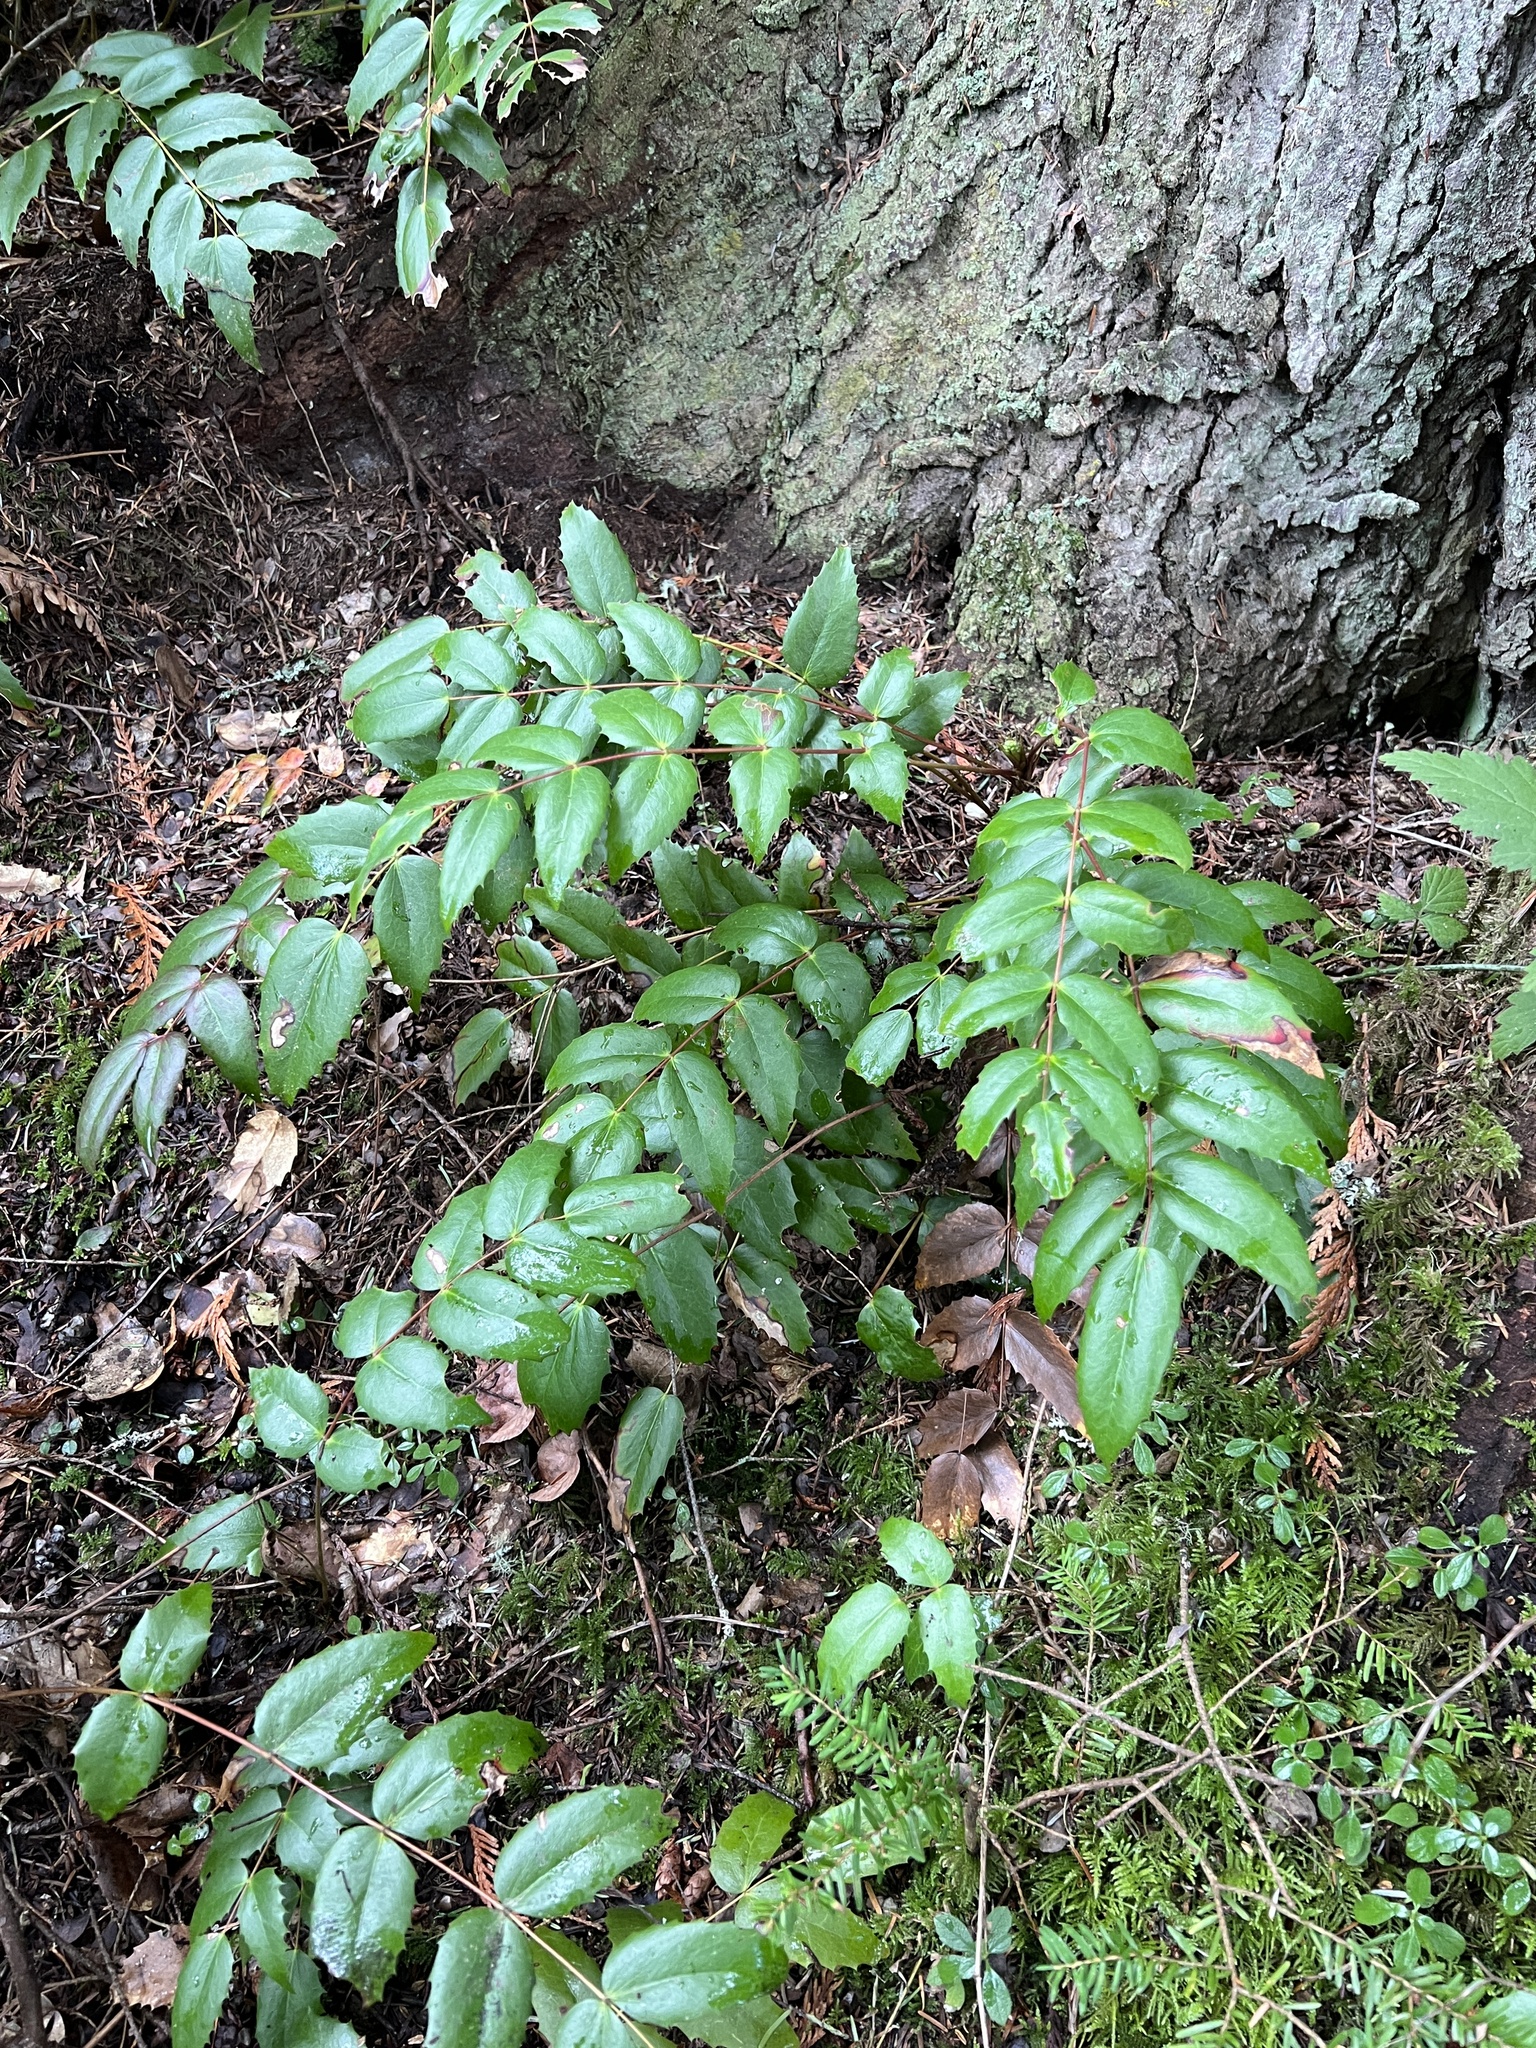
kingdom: Plantae
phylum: Tracheophyta
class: Magnoliopsida
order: Ranunculales
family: Berberidaceae
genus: Mahonia
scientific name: Mahonia nervosa
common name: Cascade oregon-grape
